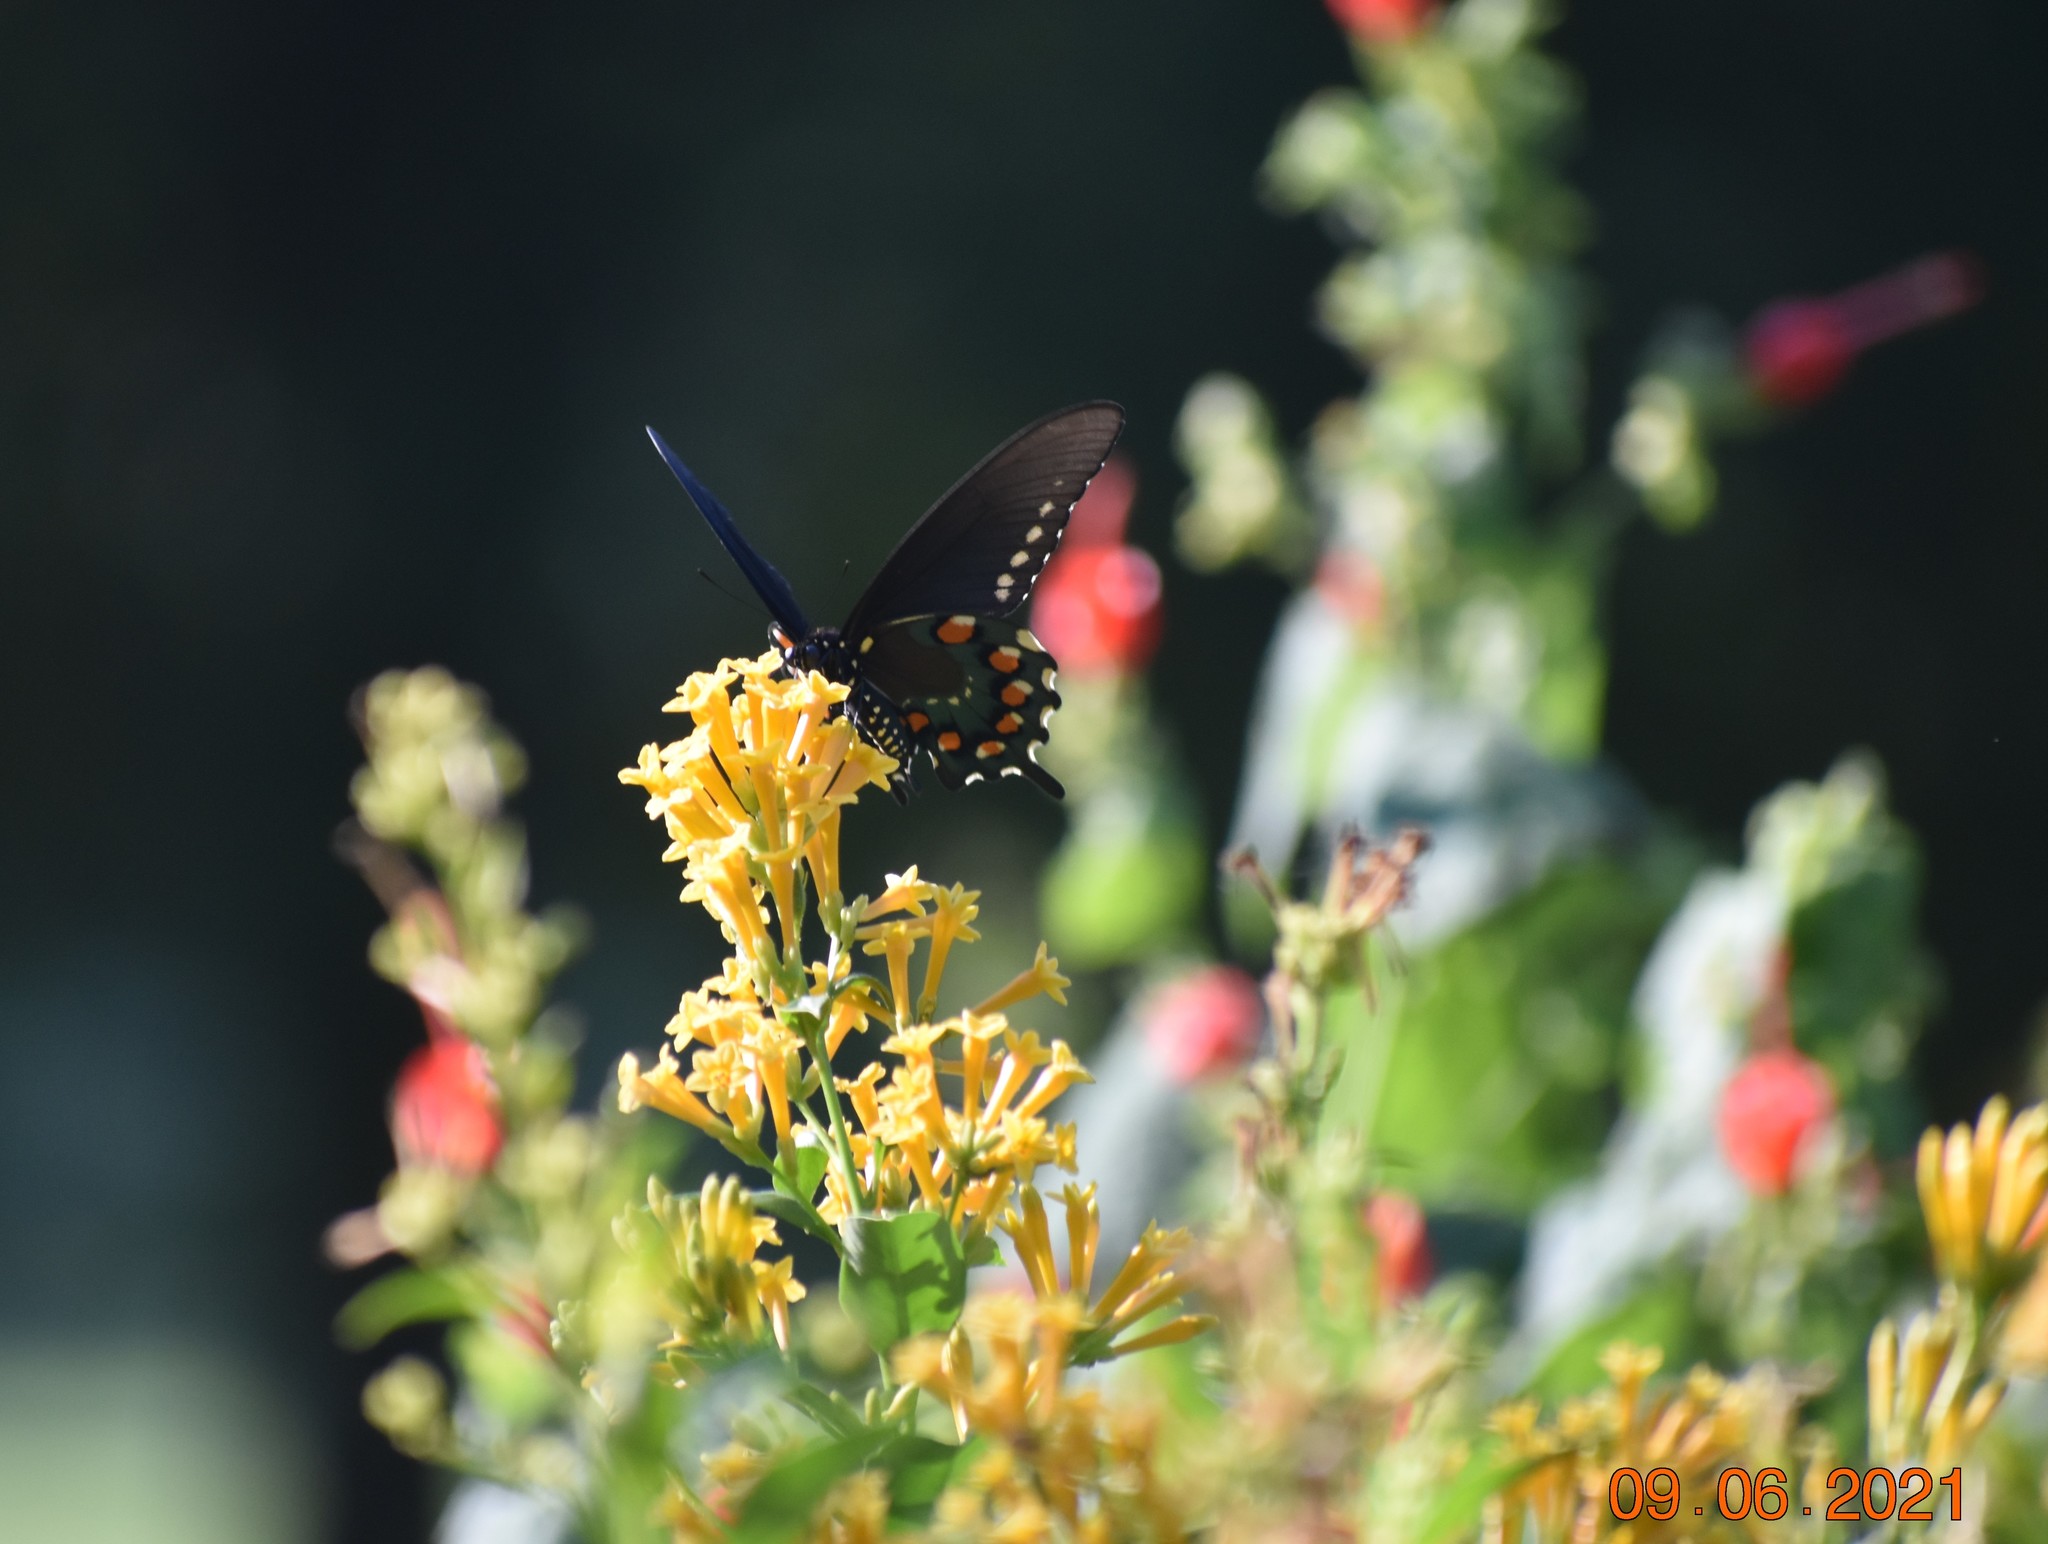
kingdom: Animalia
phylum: Arthropoda
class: Insecta
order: Lepidoptera
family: Papilionidae
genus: Battus
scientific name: Battus philenor
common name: Pipevine swallowtail
